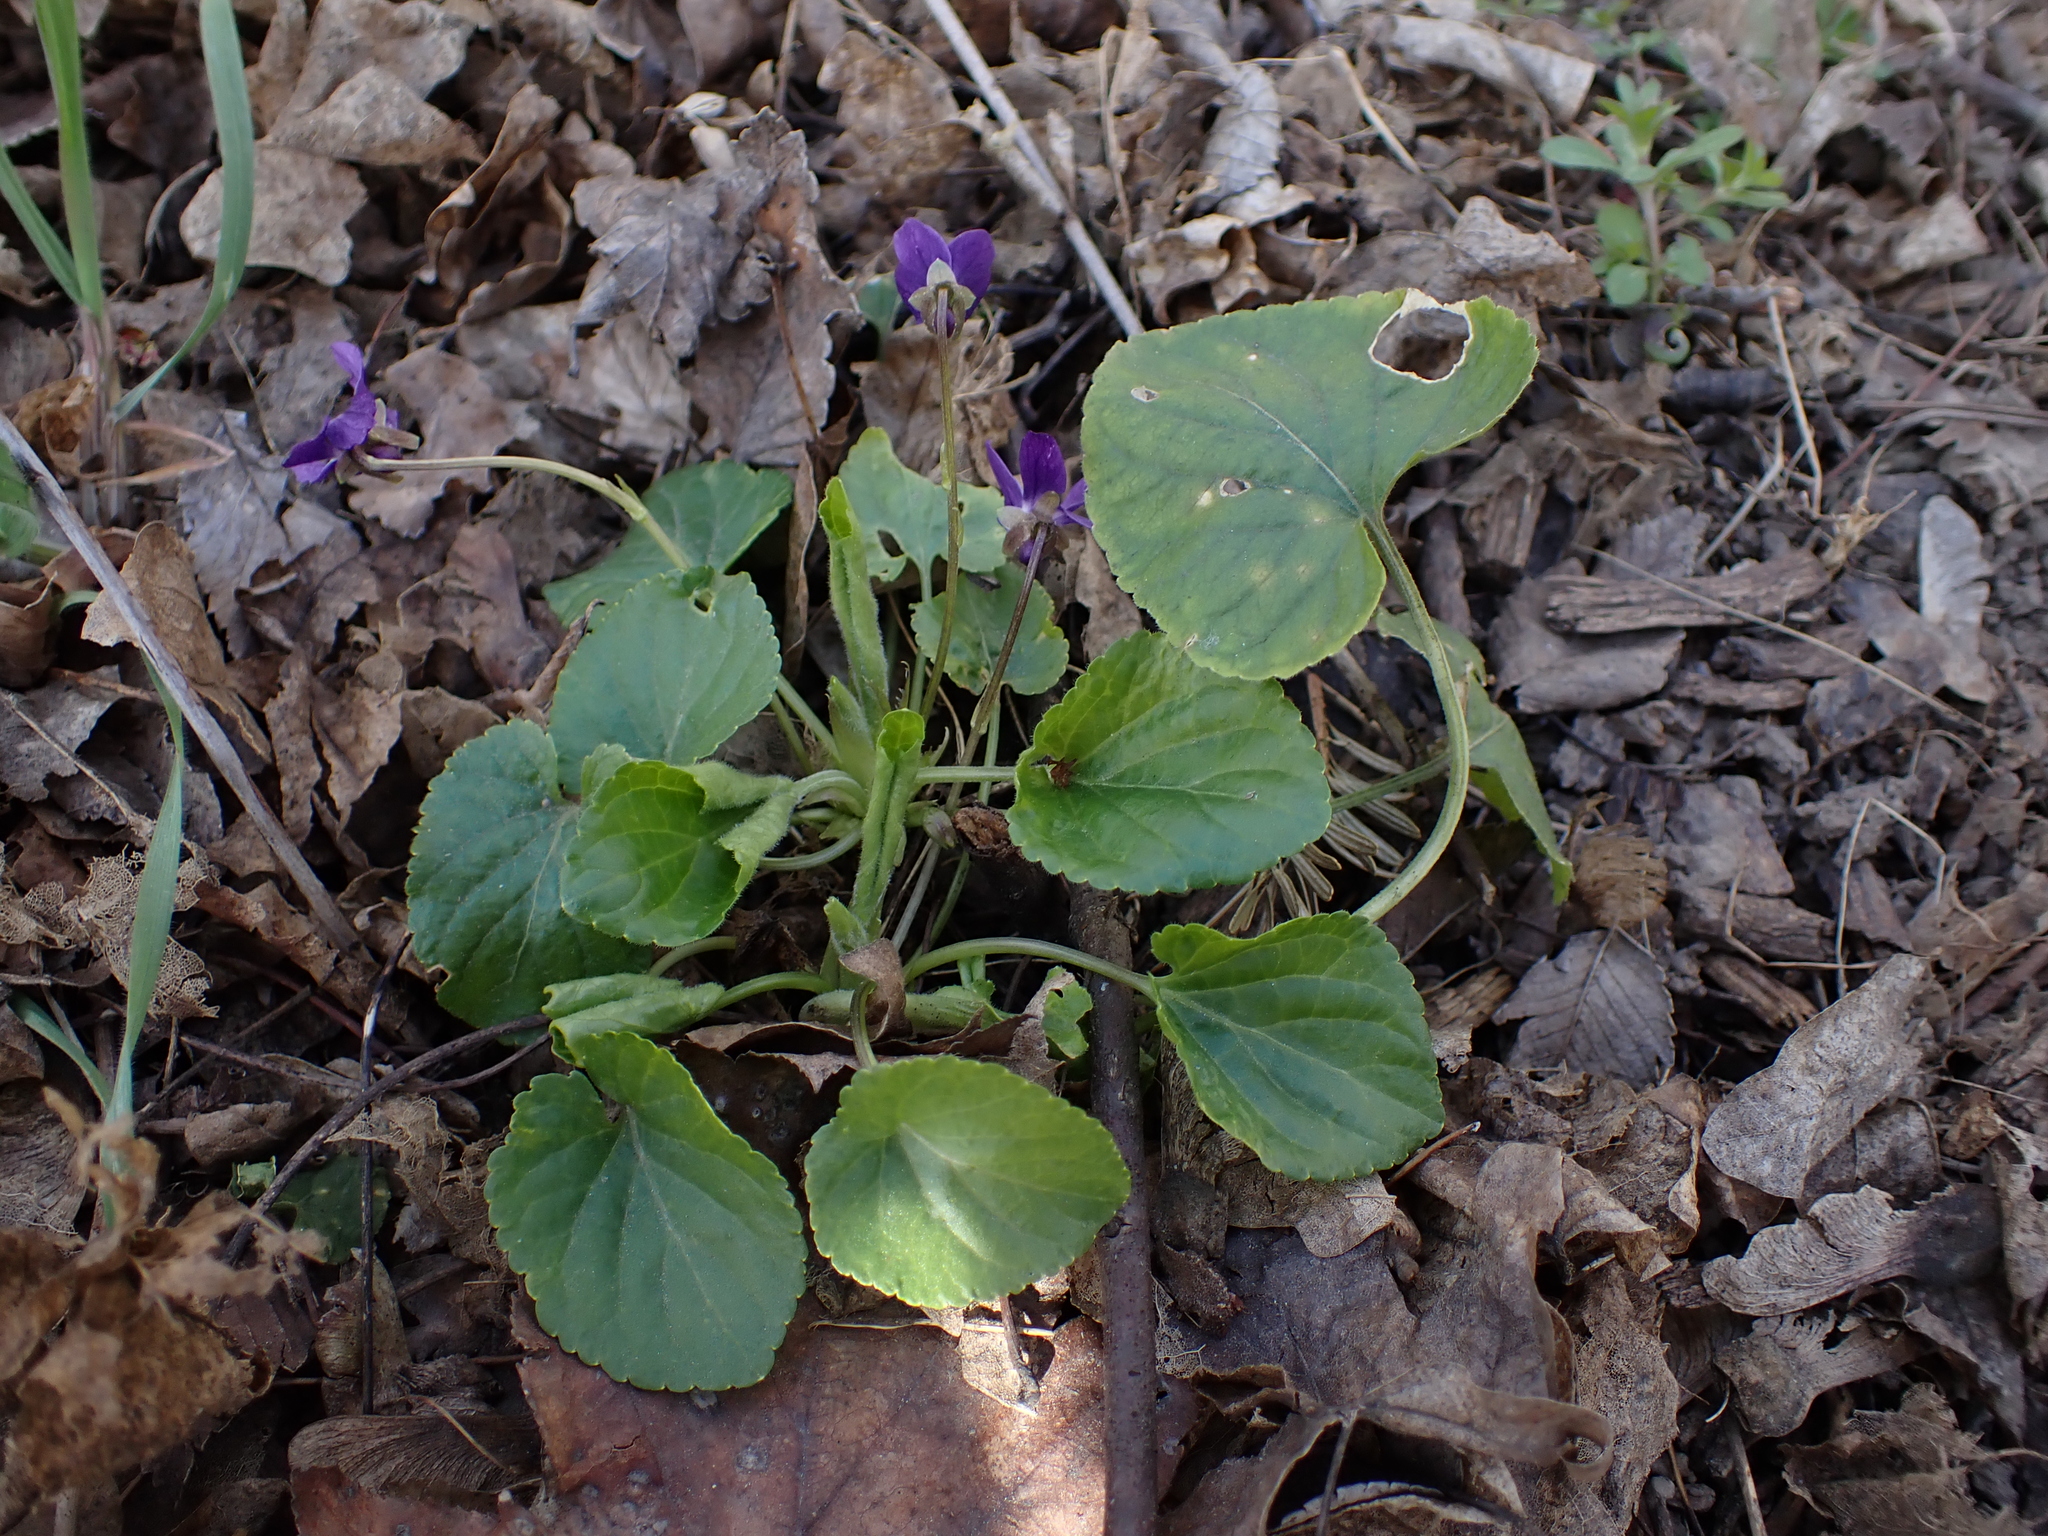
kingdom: Plantae
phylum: Tracheophyta
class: Magnoliopsida
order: Malpighiales
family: Violaceae
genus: Viola
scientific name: Viola odorata
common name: Sweet violet
